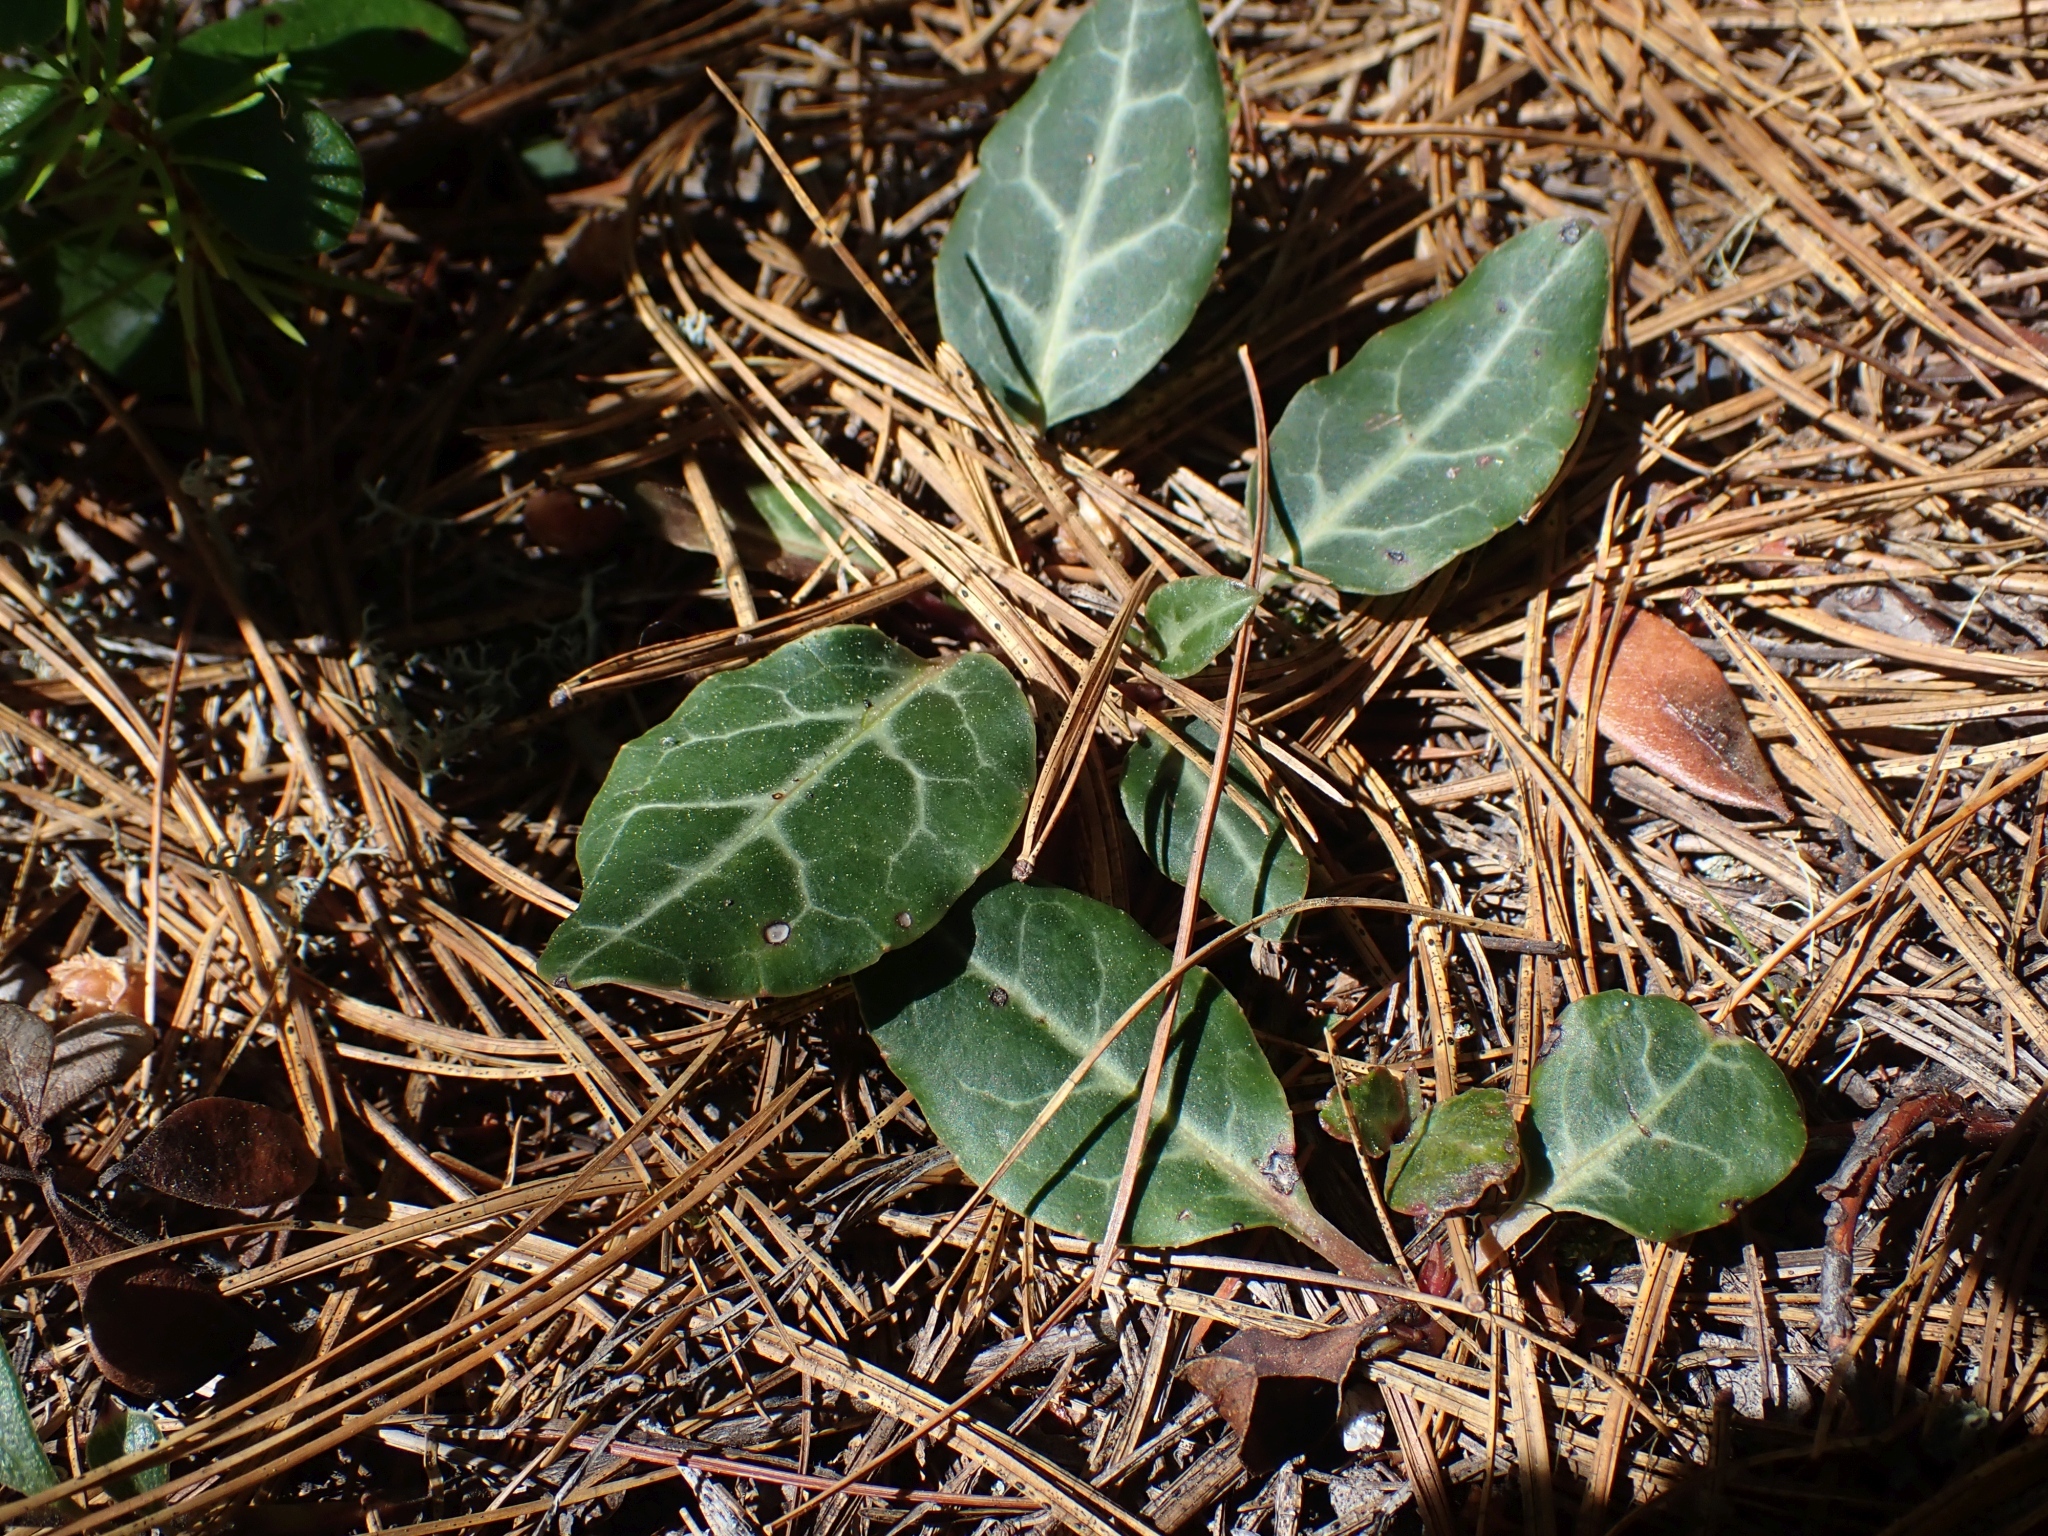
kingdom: Plantae
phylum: Tracheophyta
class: Magnoliopsida
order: Ericales
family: Ericaceae
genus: Pyrola
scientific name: Pyrola picta
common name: White-vein wintergreen
